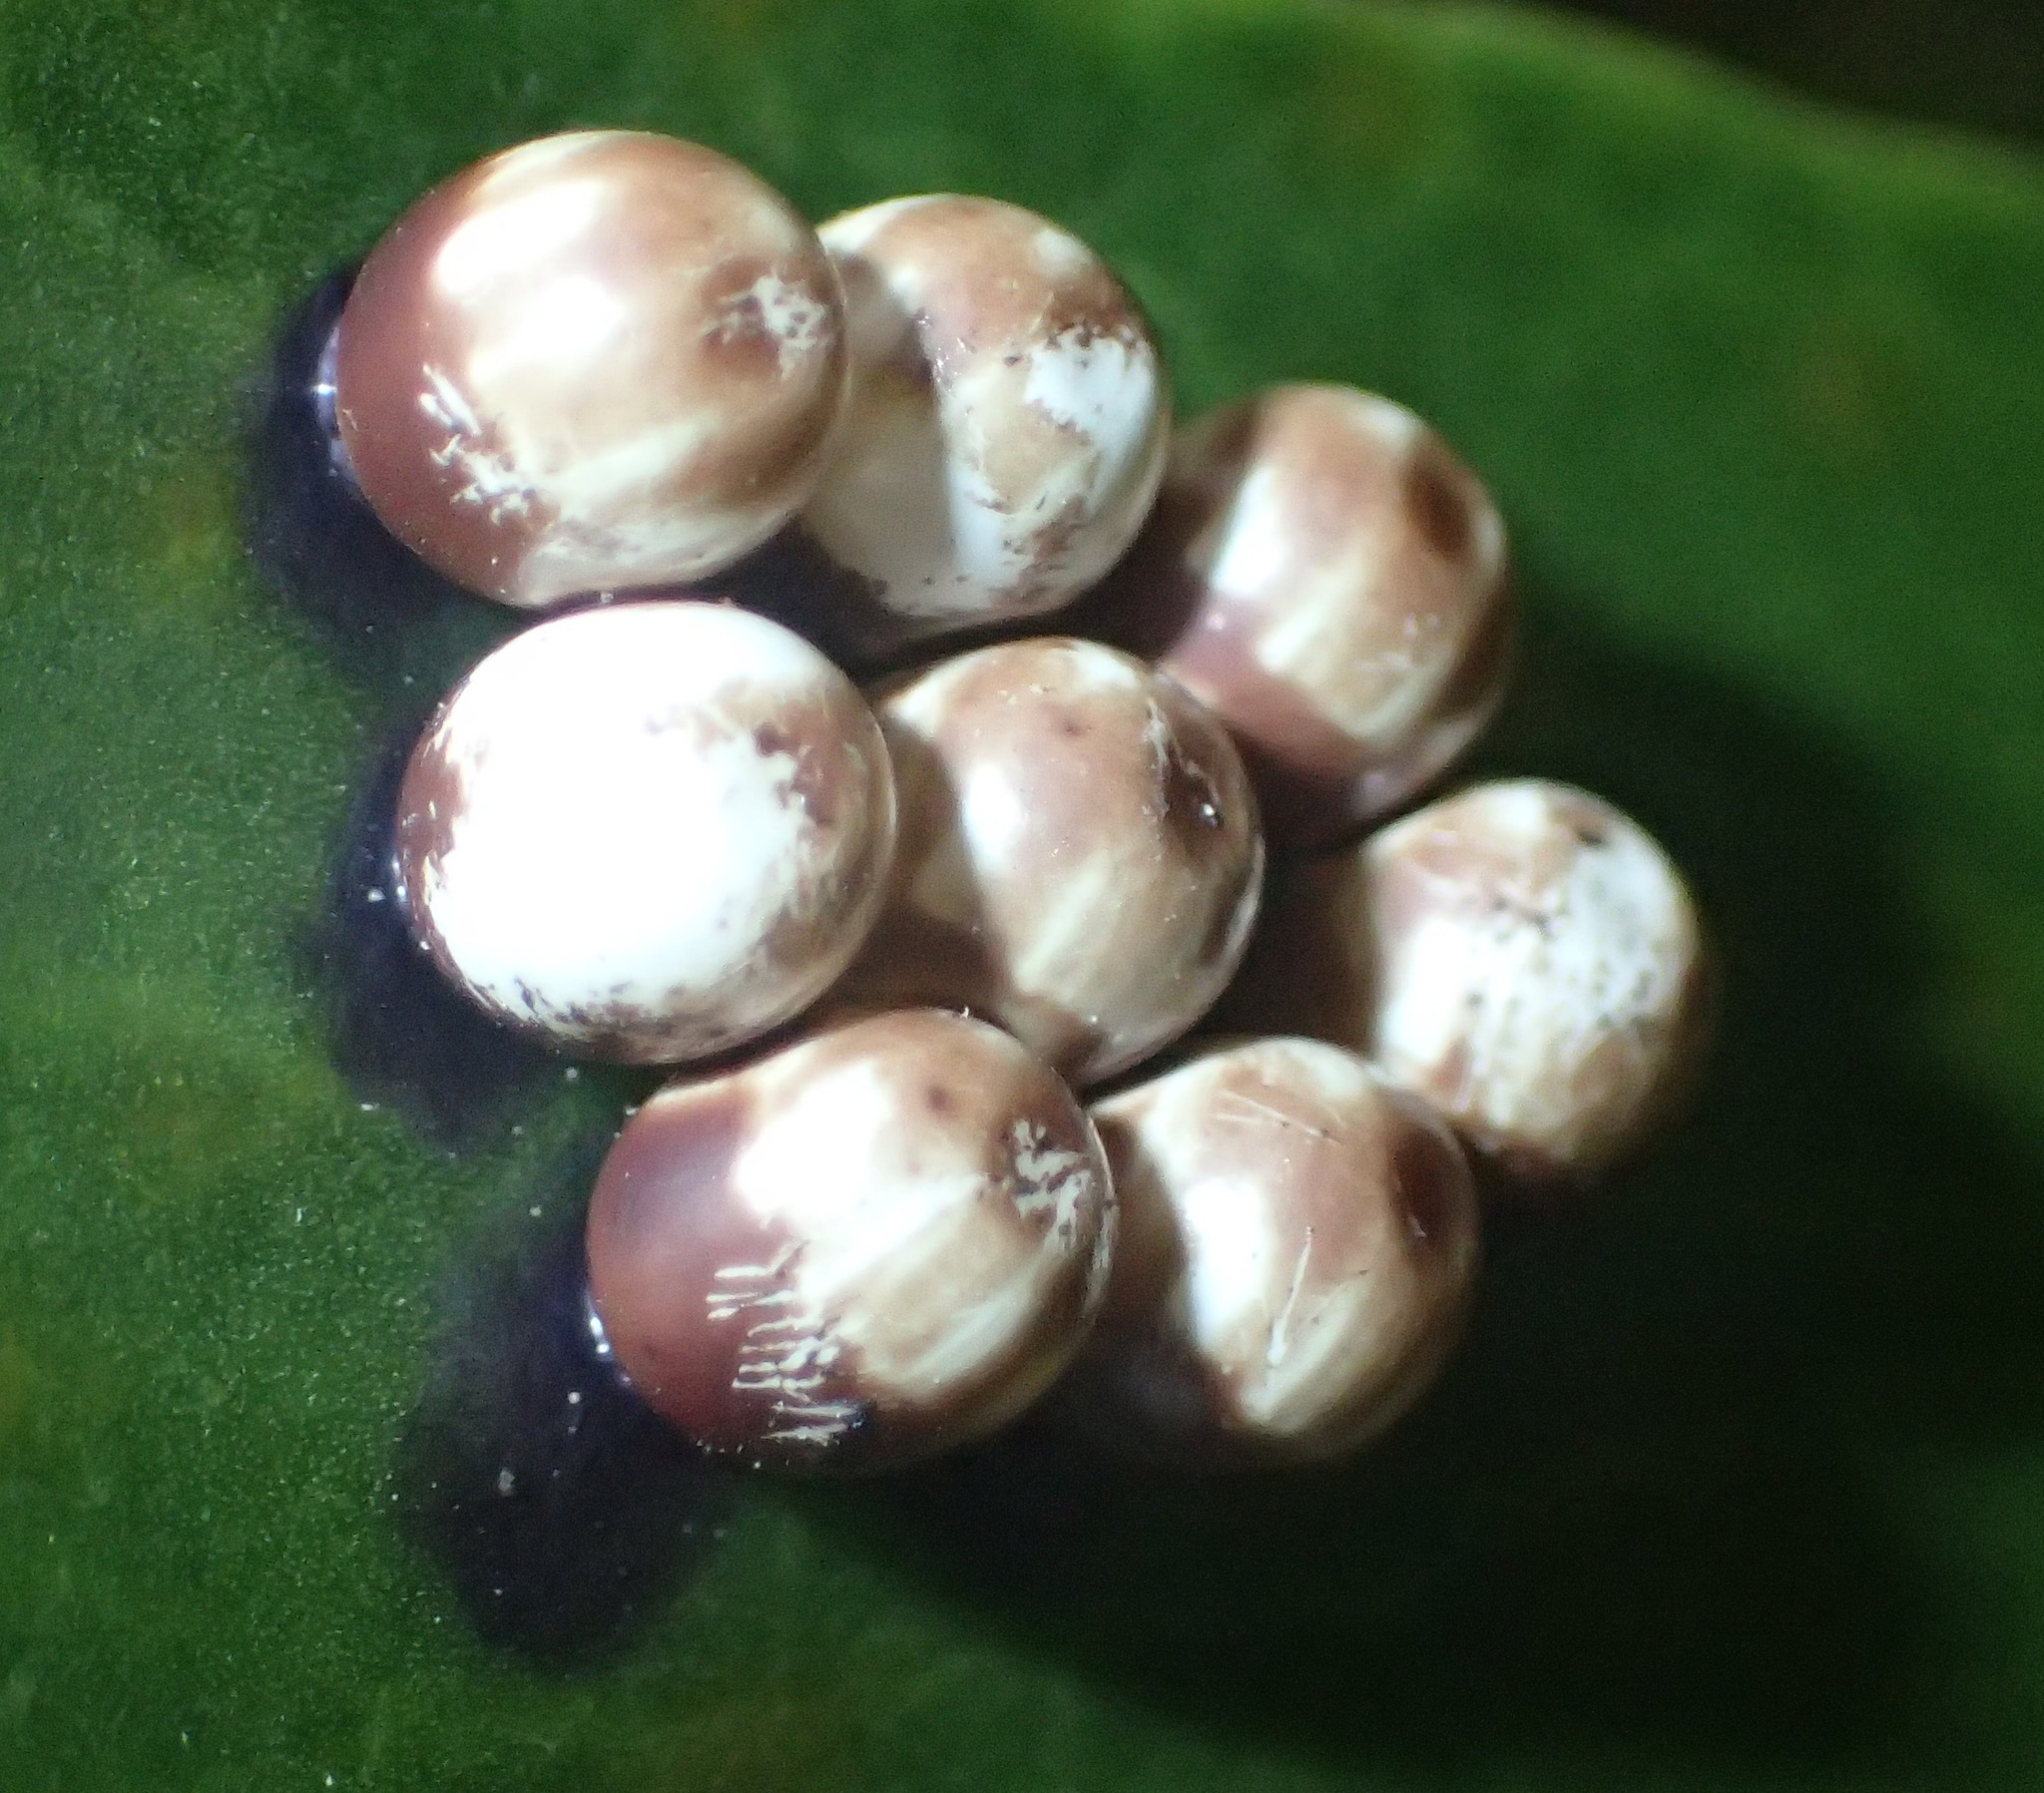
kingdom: Animalia
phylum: Arthropoda
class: Insecta
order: Lepidoptera
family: Saturniidae
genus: Nudaurelia
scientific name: Nudaurelia cytherea
